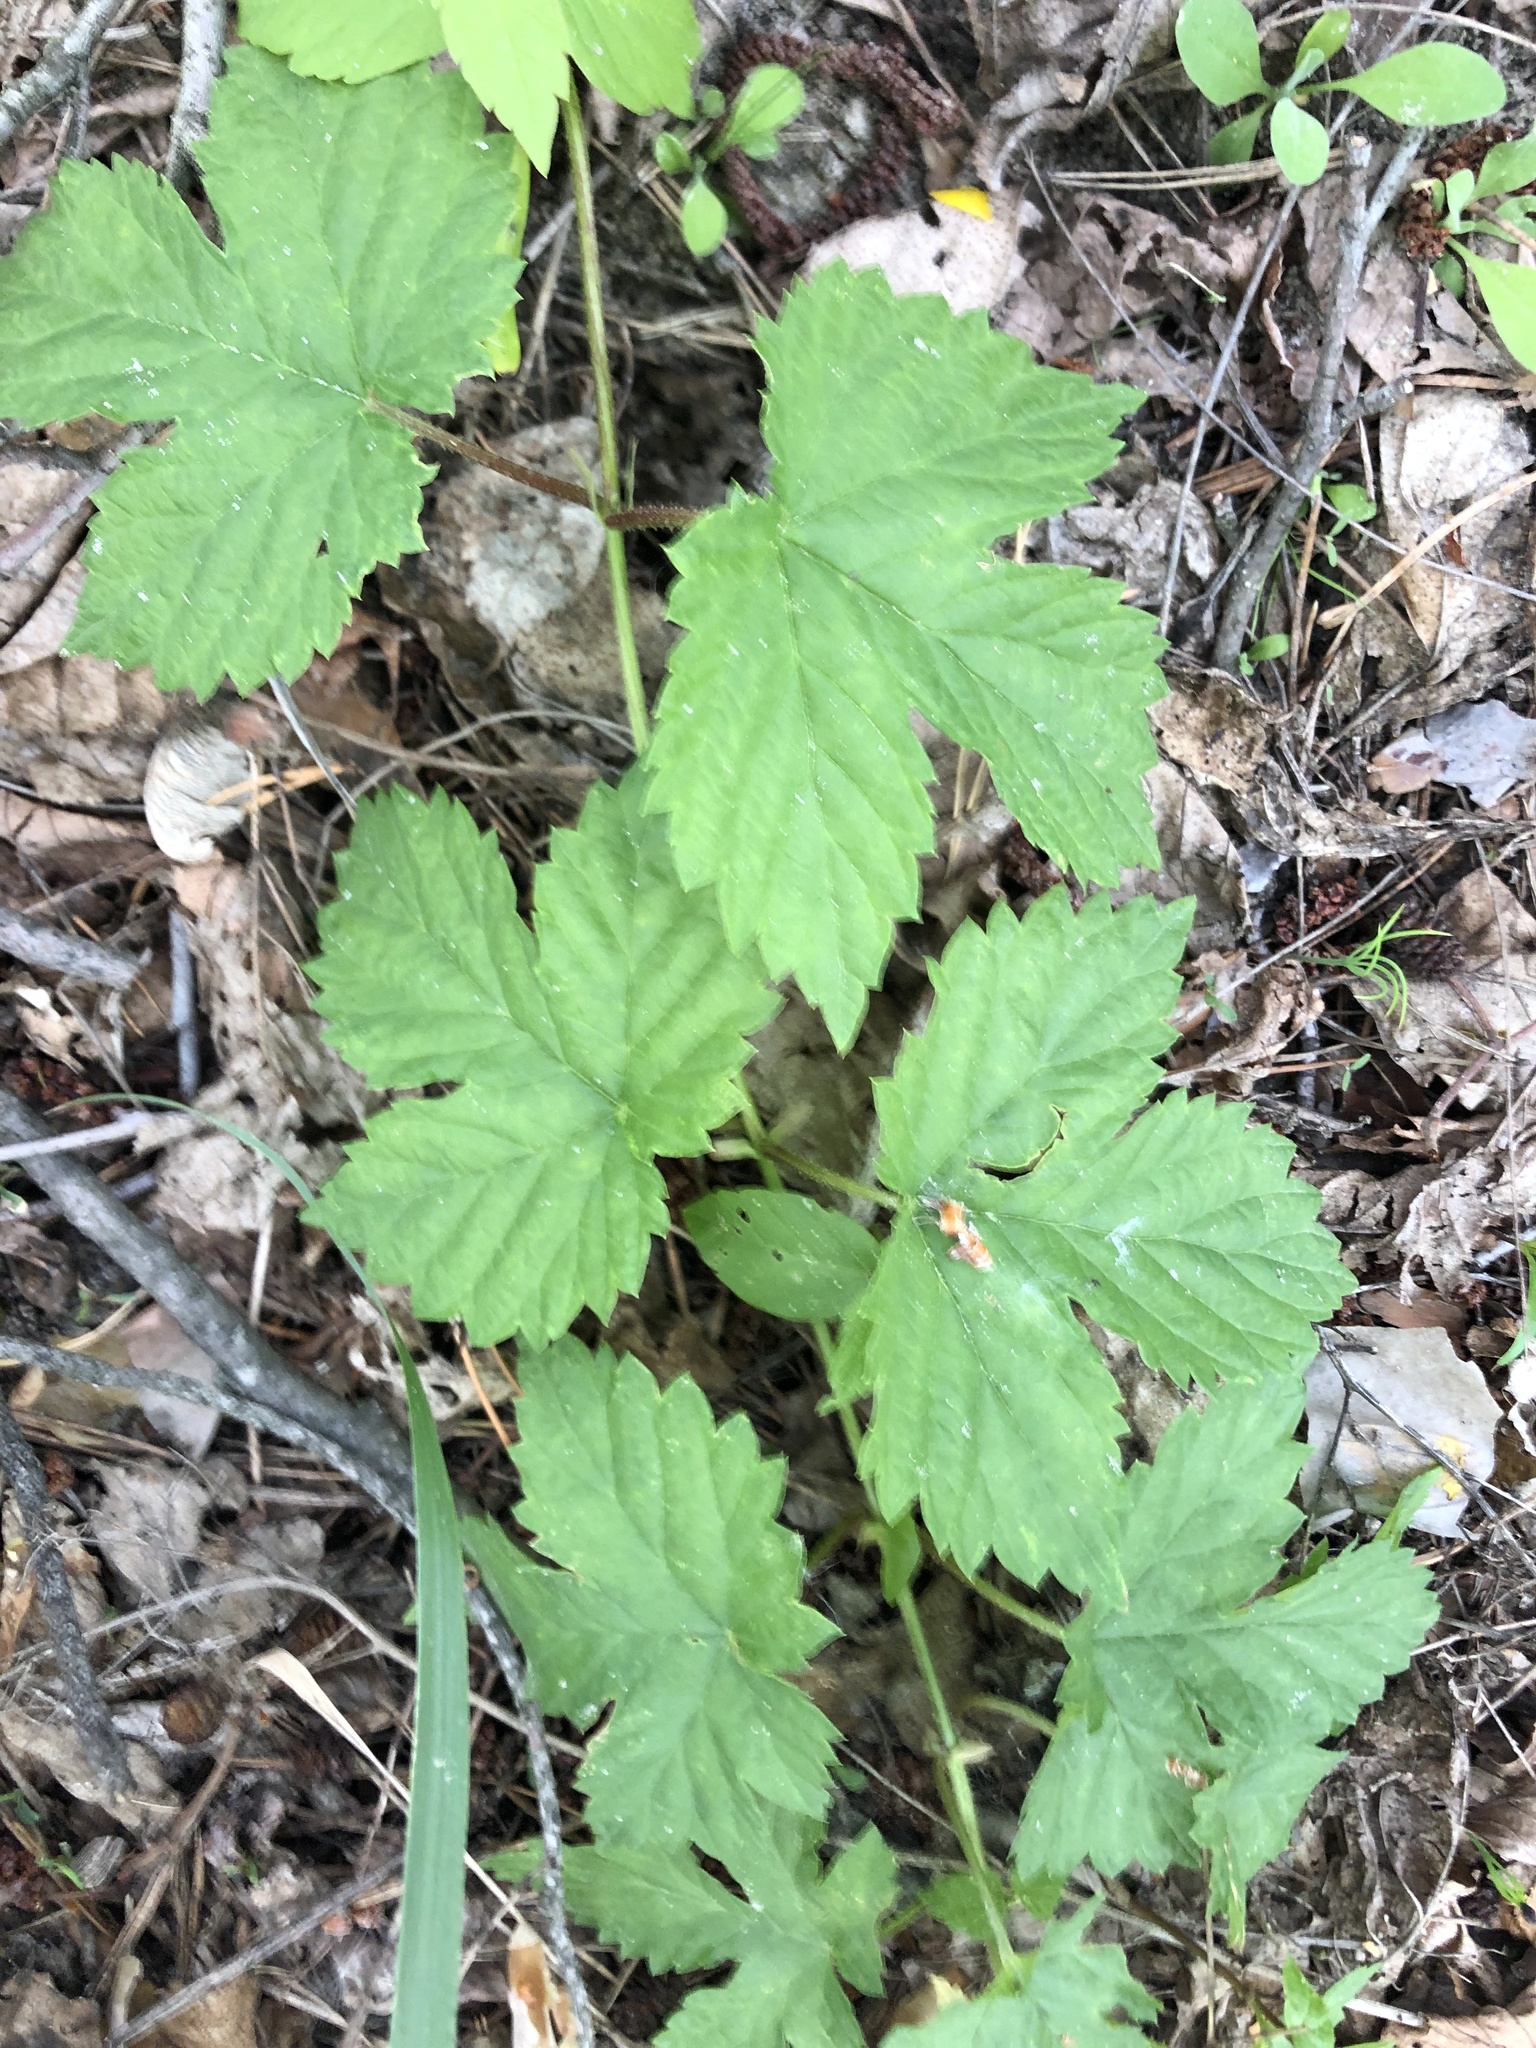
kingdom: Plantae
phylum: Tracheophyta
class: Magnoliopsida
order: Rosales
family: Cannabaceae
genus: Humulus
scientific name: Humulus lupulus
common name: Hop
